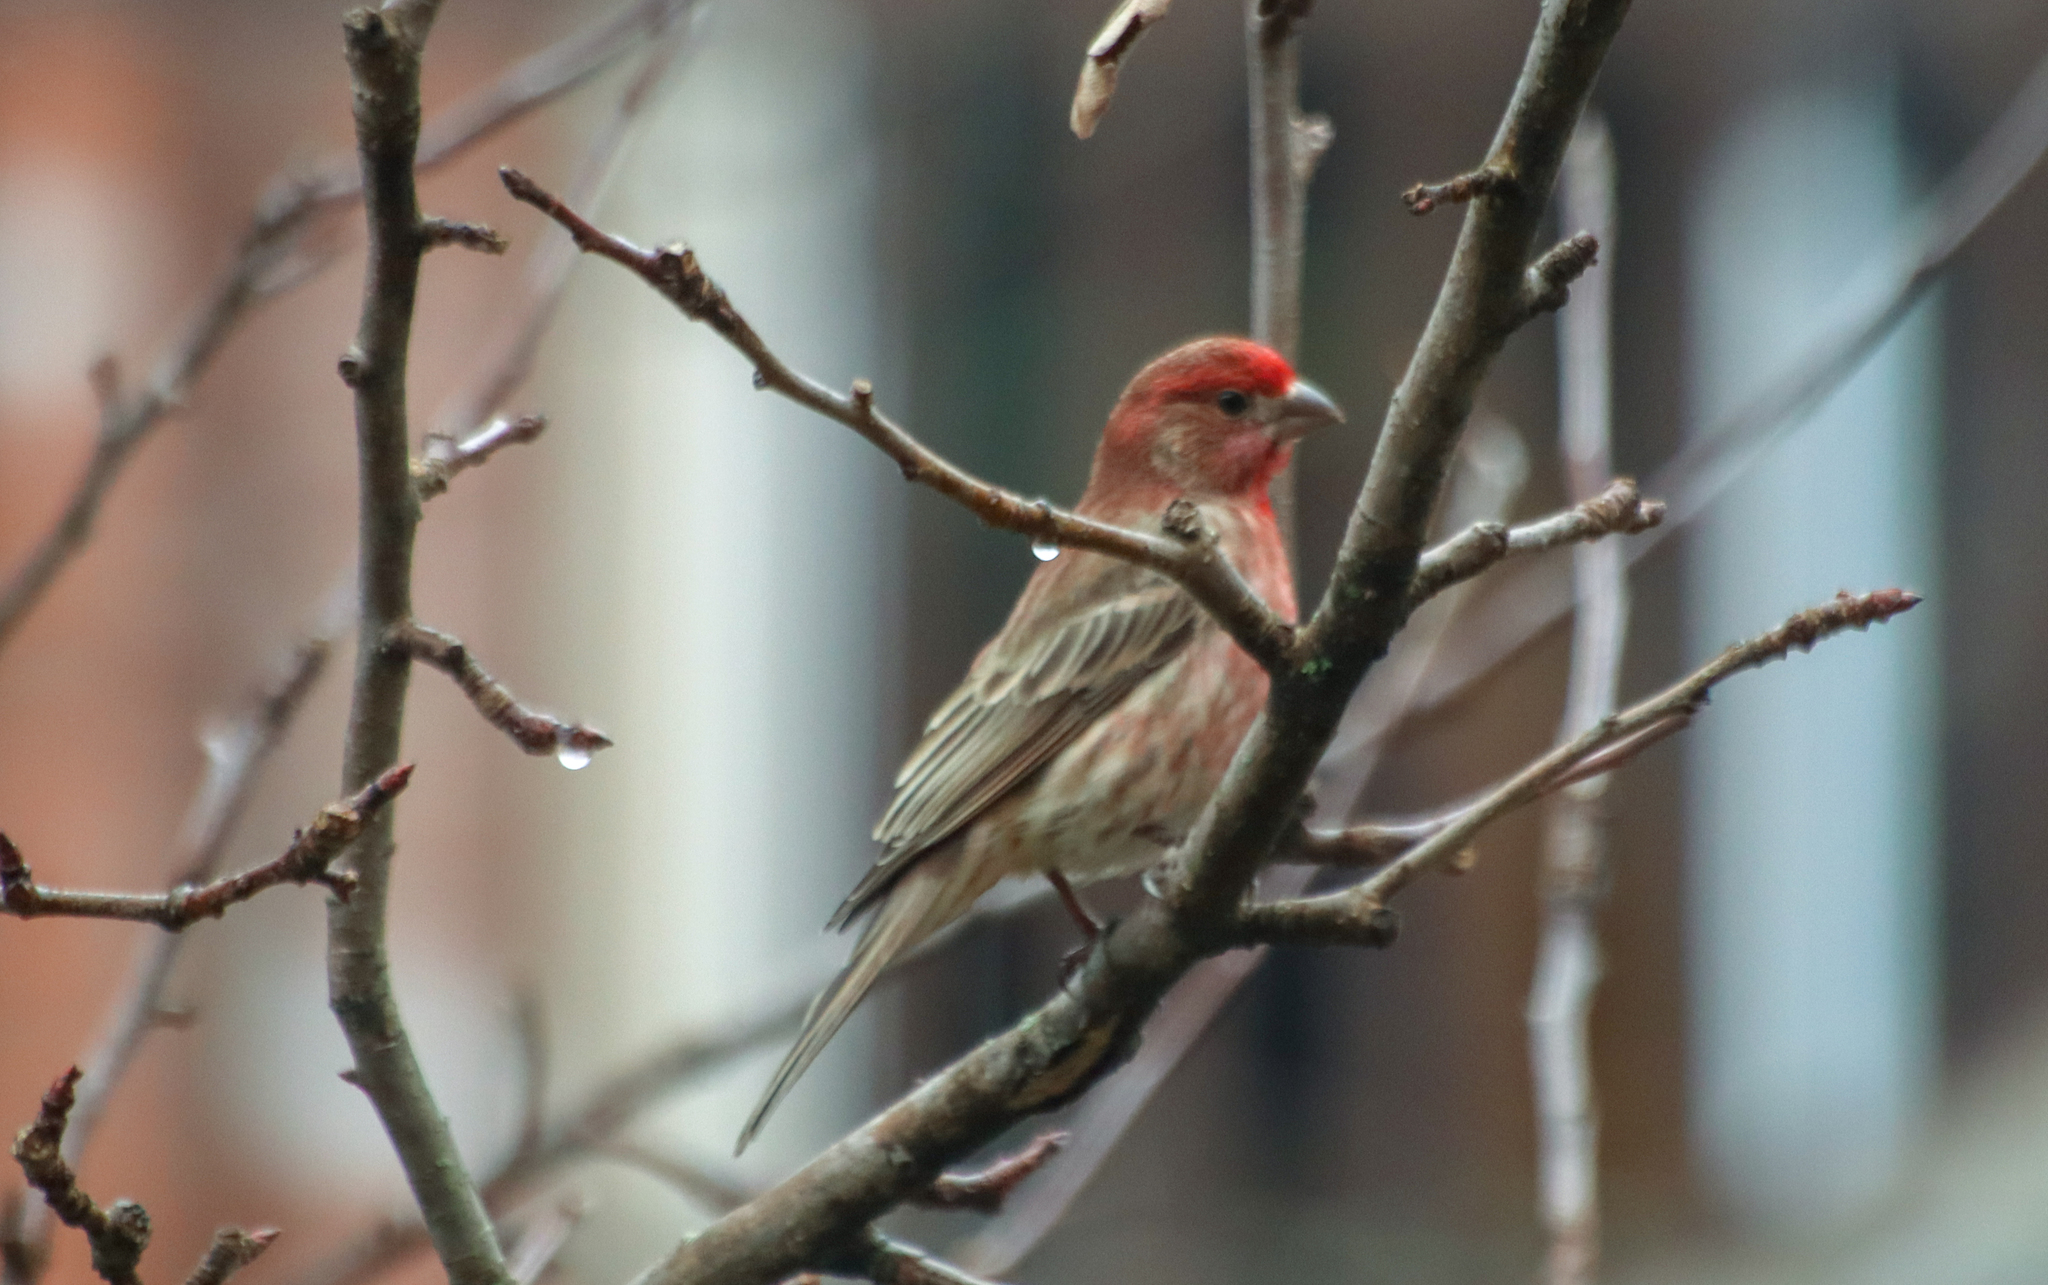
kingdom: Animalia
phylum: Chordata
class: Aves
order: Passeriformes
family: Fringillidae
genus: Haemorhous
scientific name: Haemorhous mexicanus
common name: House finch
